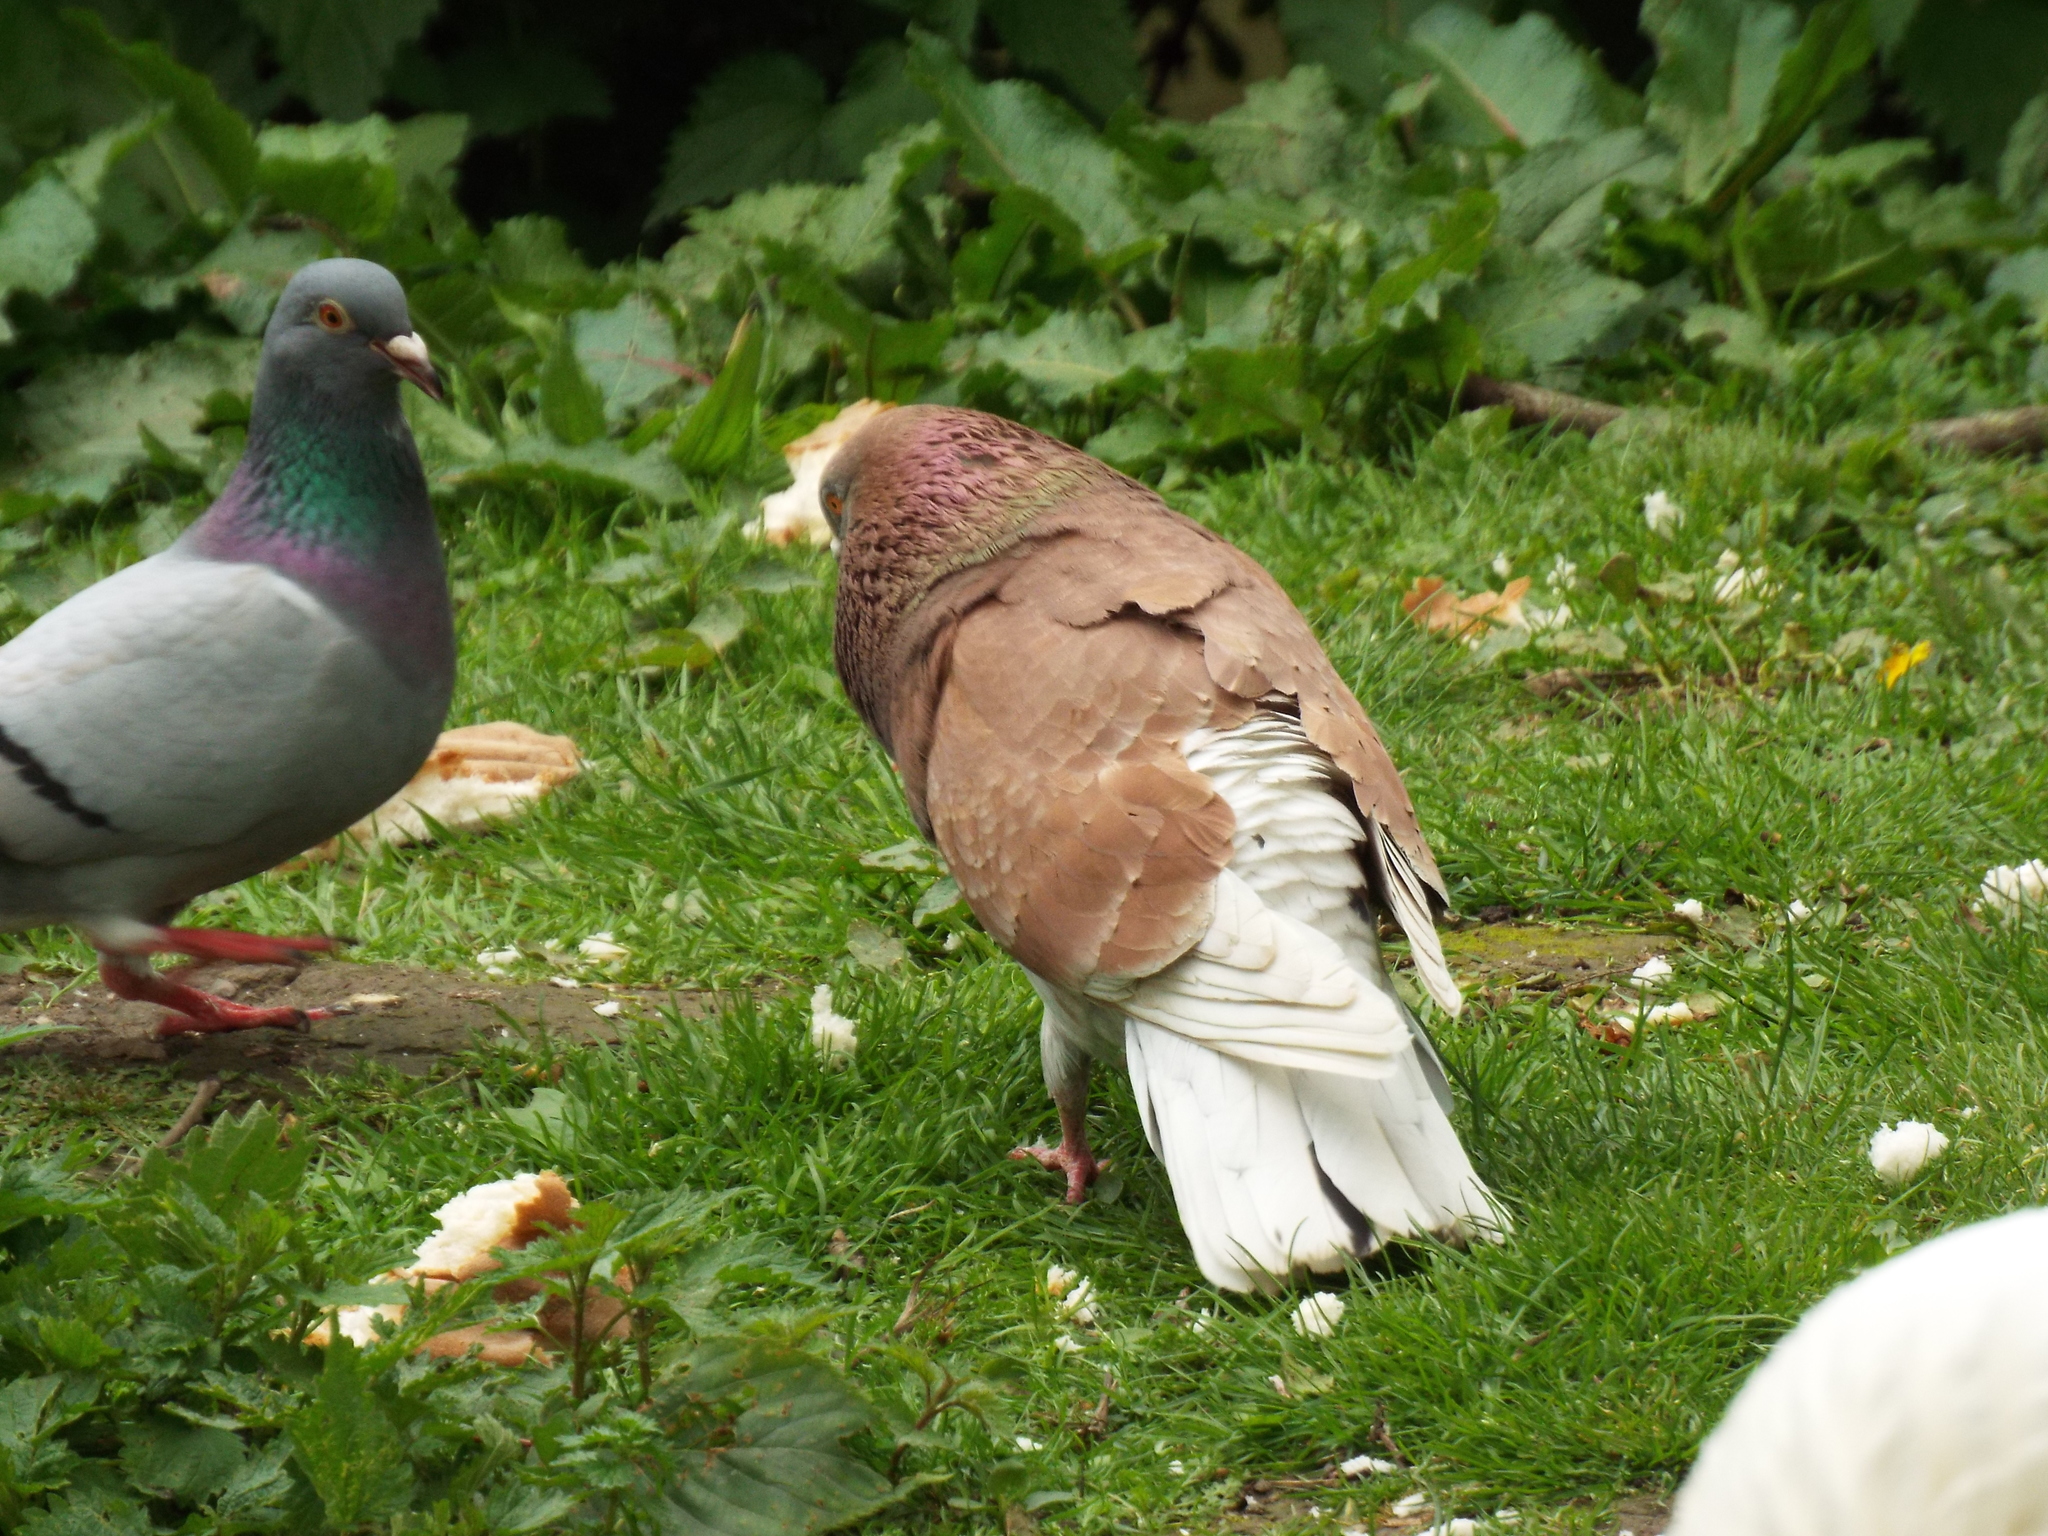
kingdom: Animalia
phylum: Chordata
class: Aves
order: Columbiformes
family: Columbidae
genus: Columba
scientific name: Columba livia
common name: Rock pigeon
